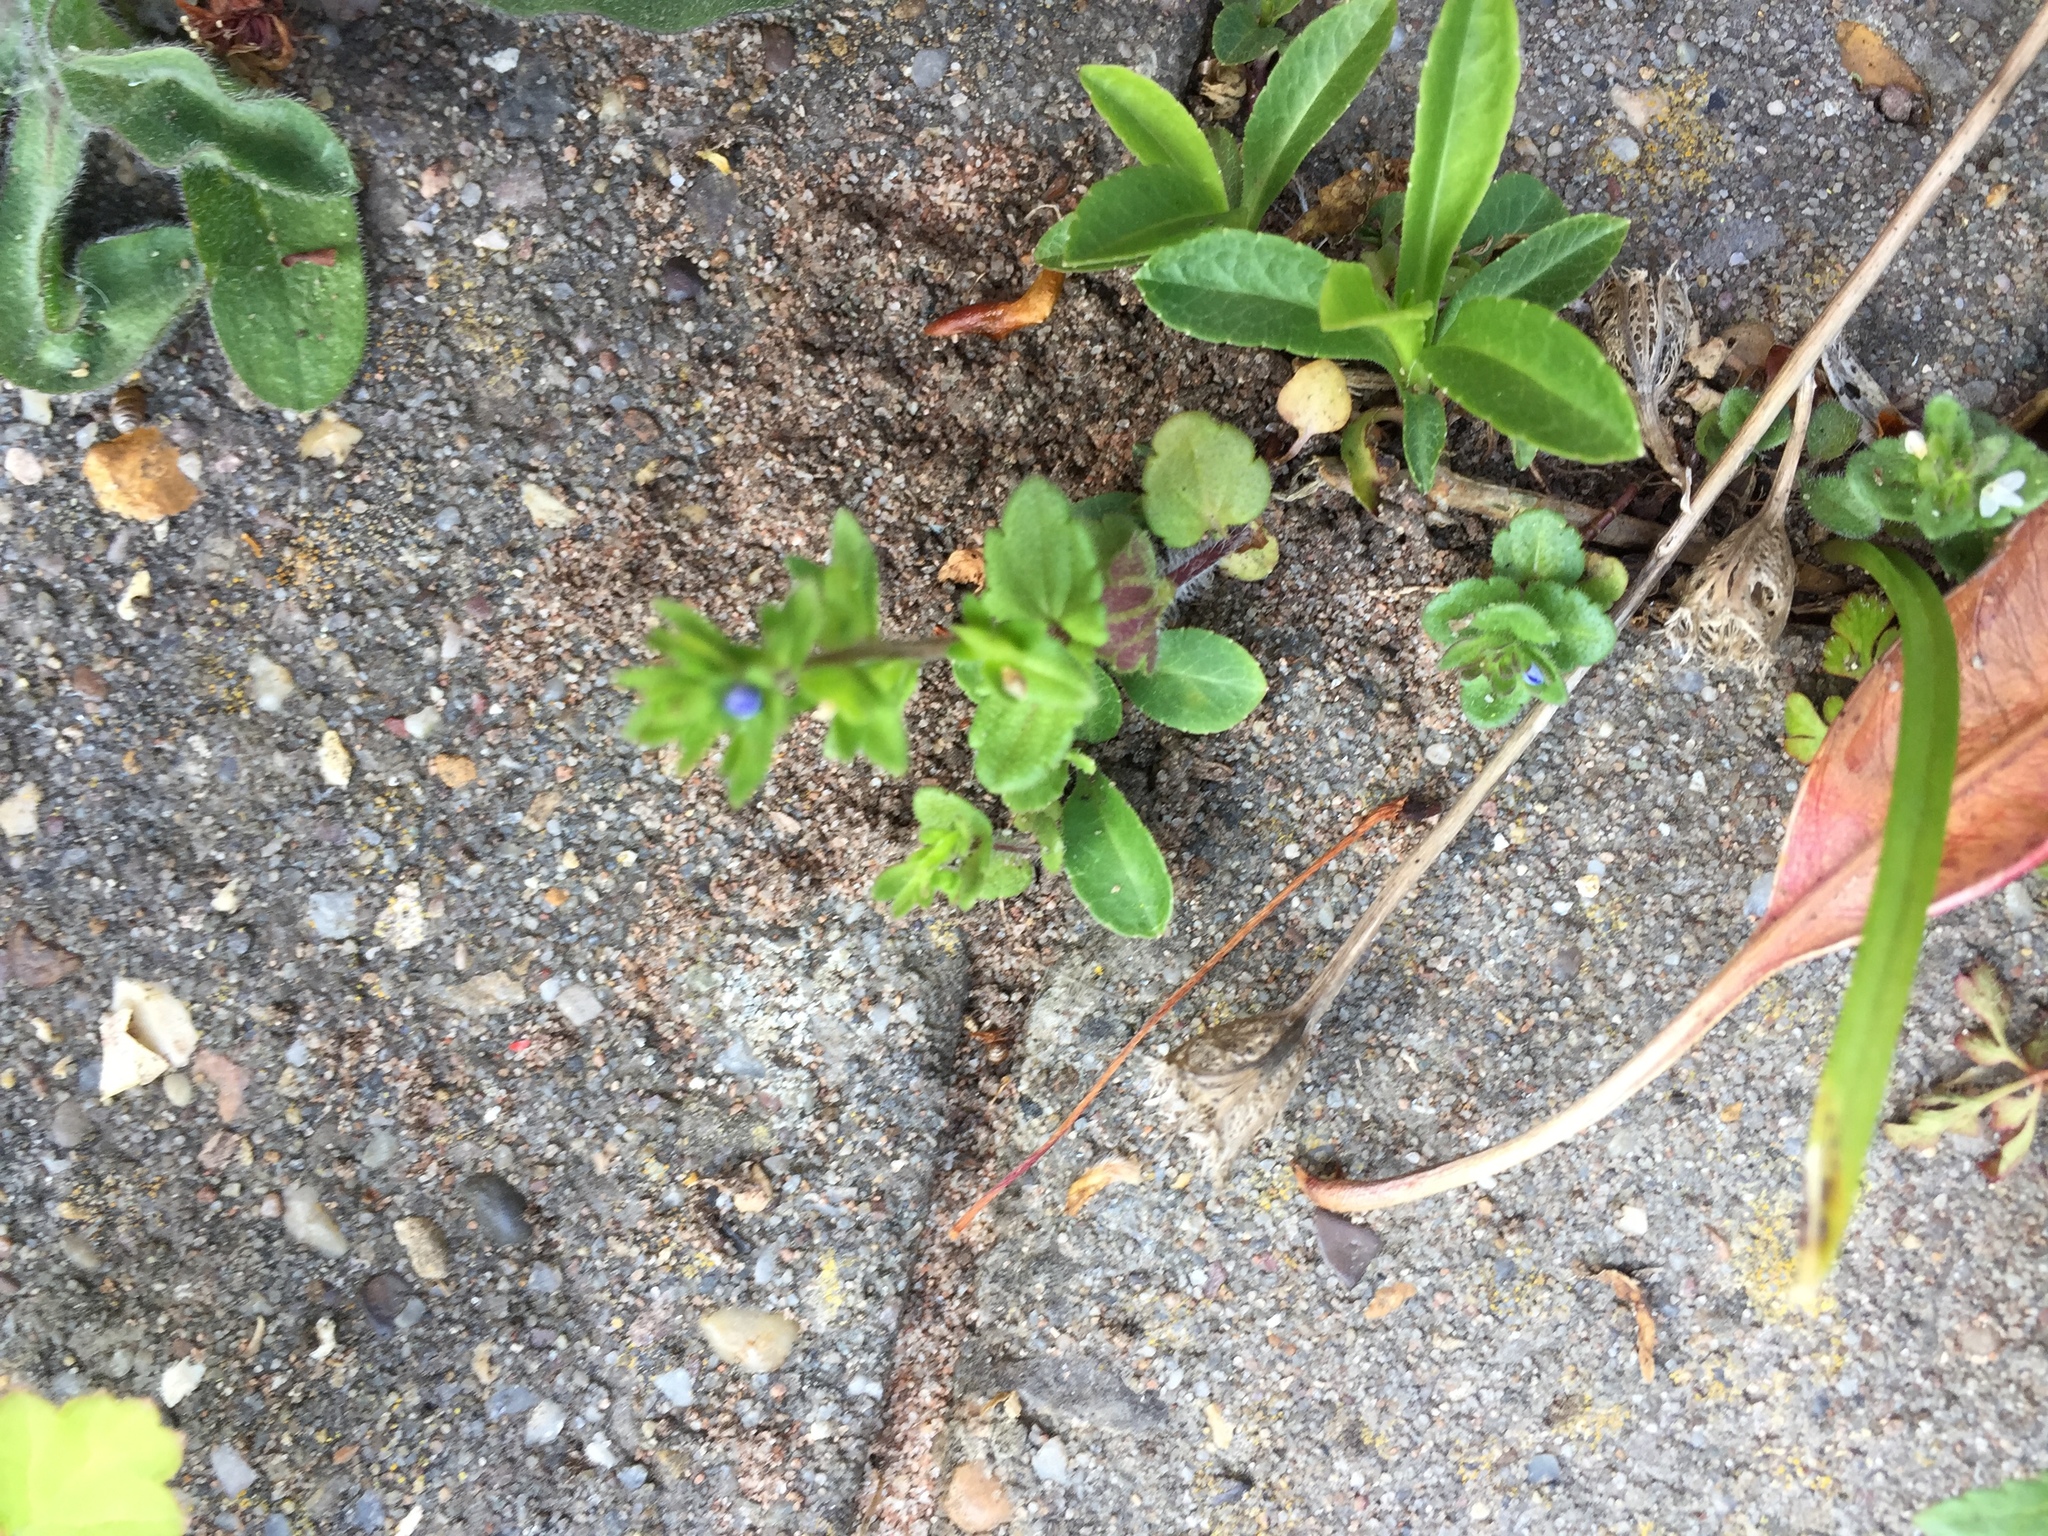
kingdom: Plantae
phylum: Tracheophyta
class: Magnoliopsida
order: Lamiales
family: Plantaginaceae
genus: Veronica
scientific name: Veronica arvensis
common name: Corn speedwell
